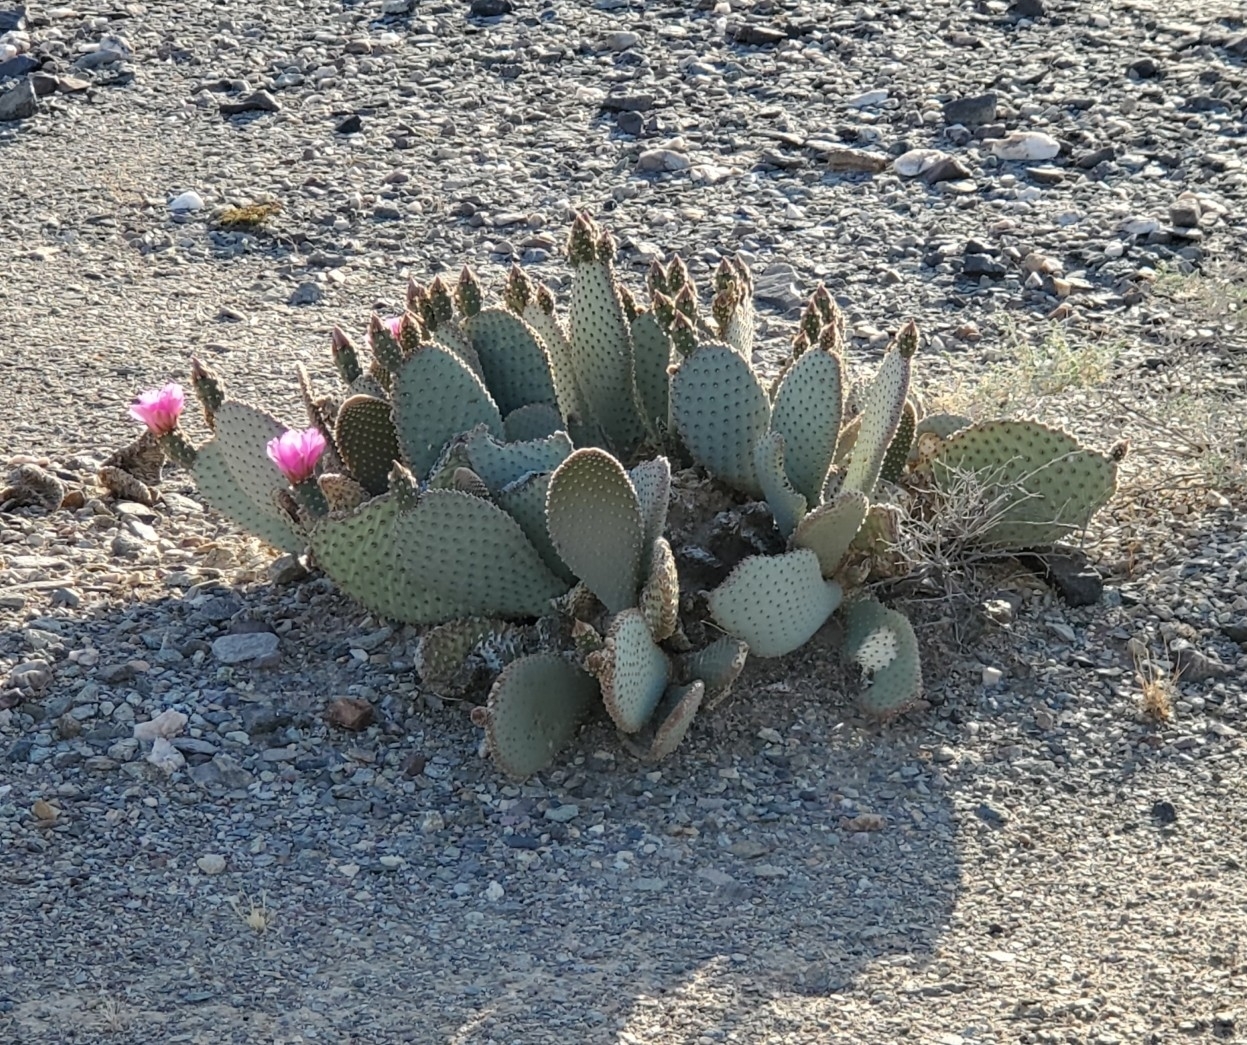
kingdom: Plantae
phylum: Tracheophyta
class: Magnoliopsida
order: Caryophyllales
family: Cactaceae
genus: Opuntia
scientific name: Opuntia basilaris
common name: Beavertail prickly-pear
